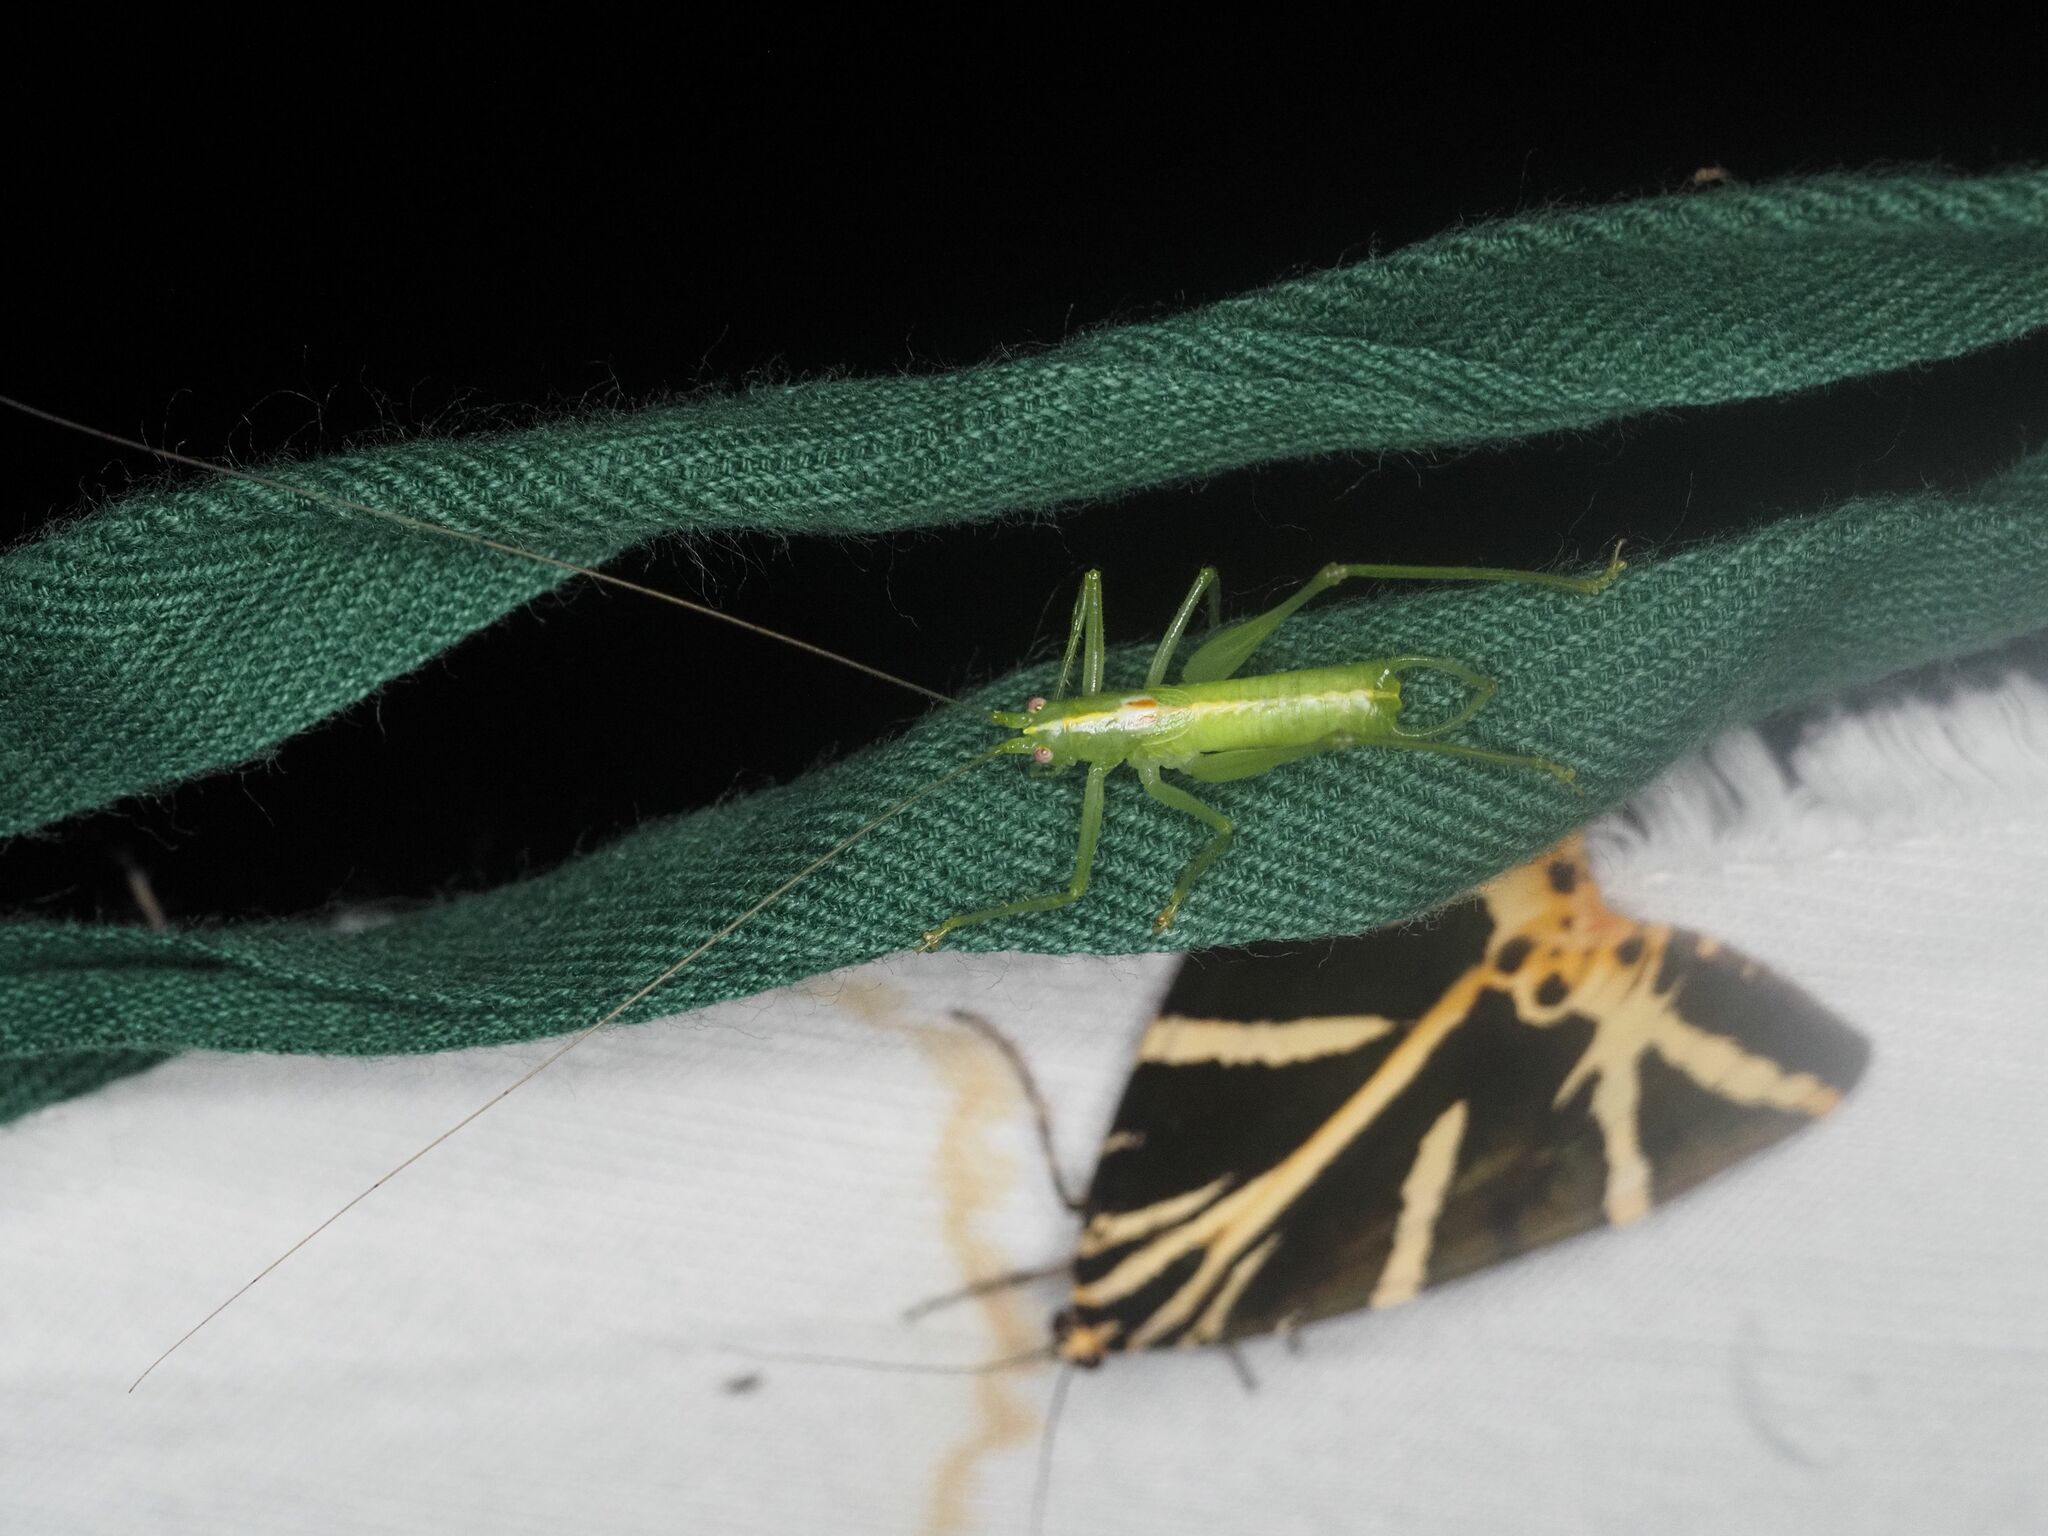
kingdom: Animalia
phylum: Arthropoda
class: Insecta
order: Orthoptera
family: Tettigoniidae
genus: Meconema
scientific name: Meconema meridionale
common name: Southern oak bush-cricket
